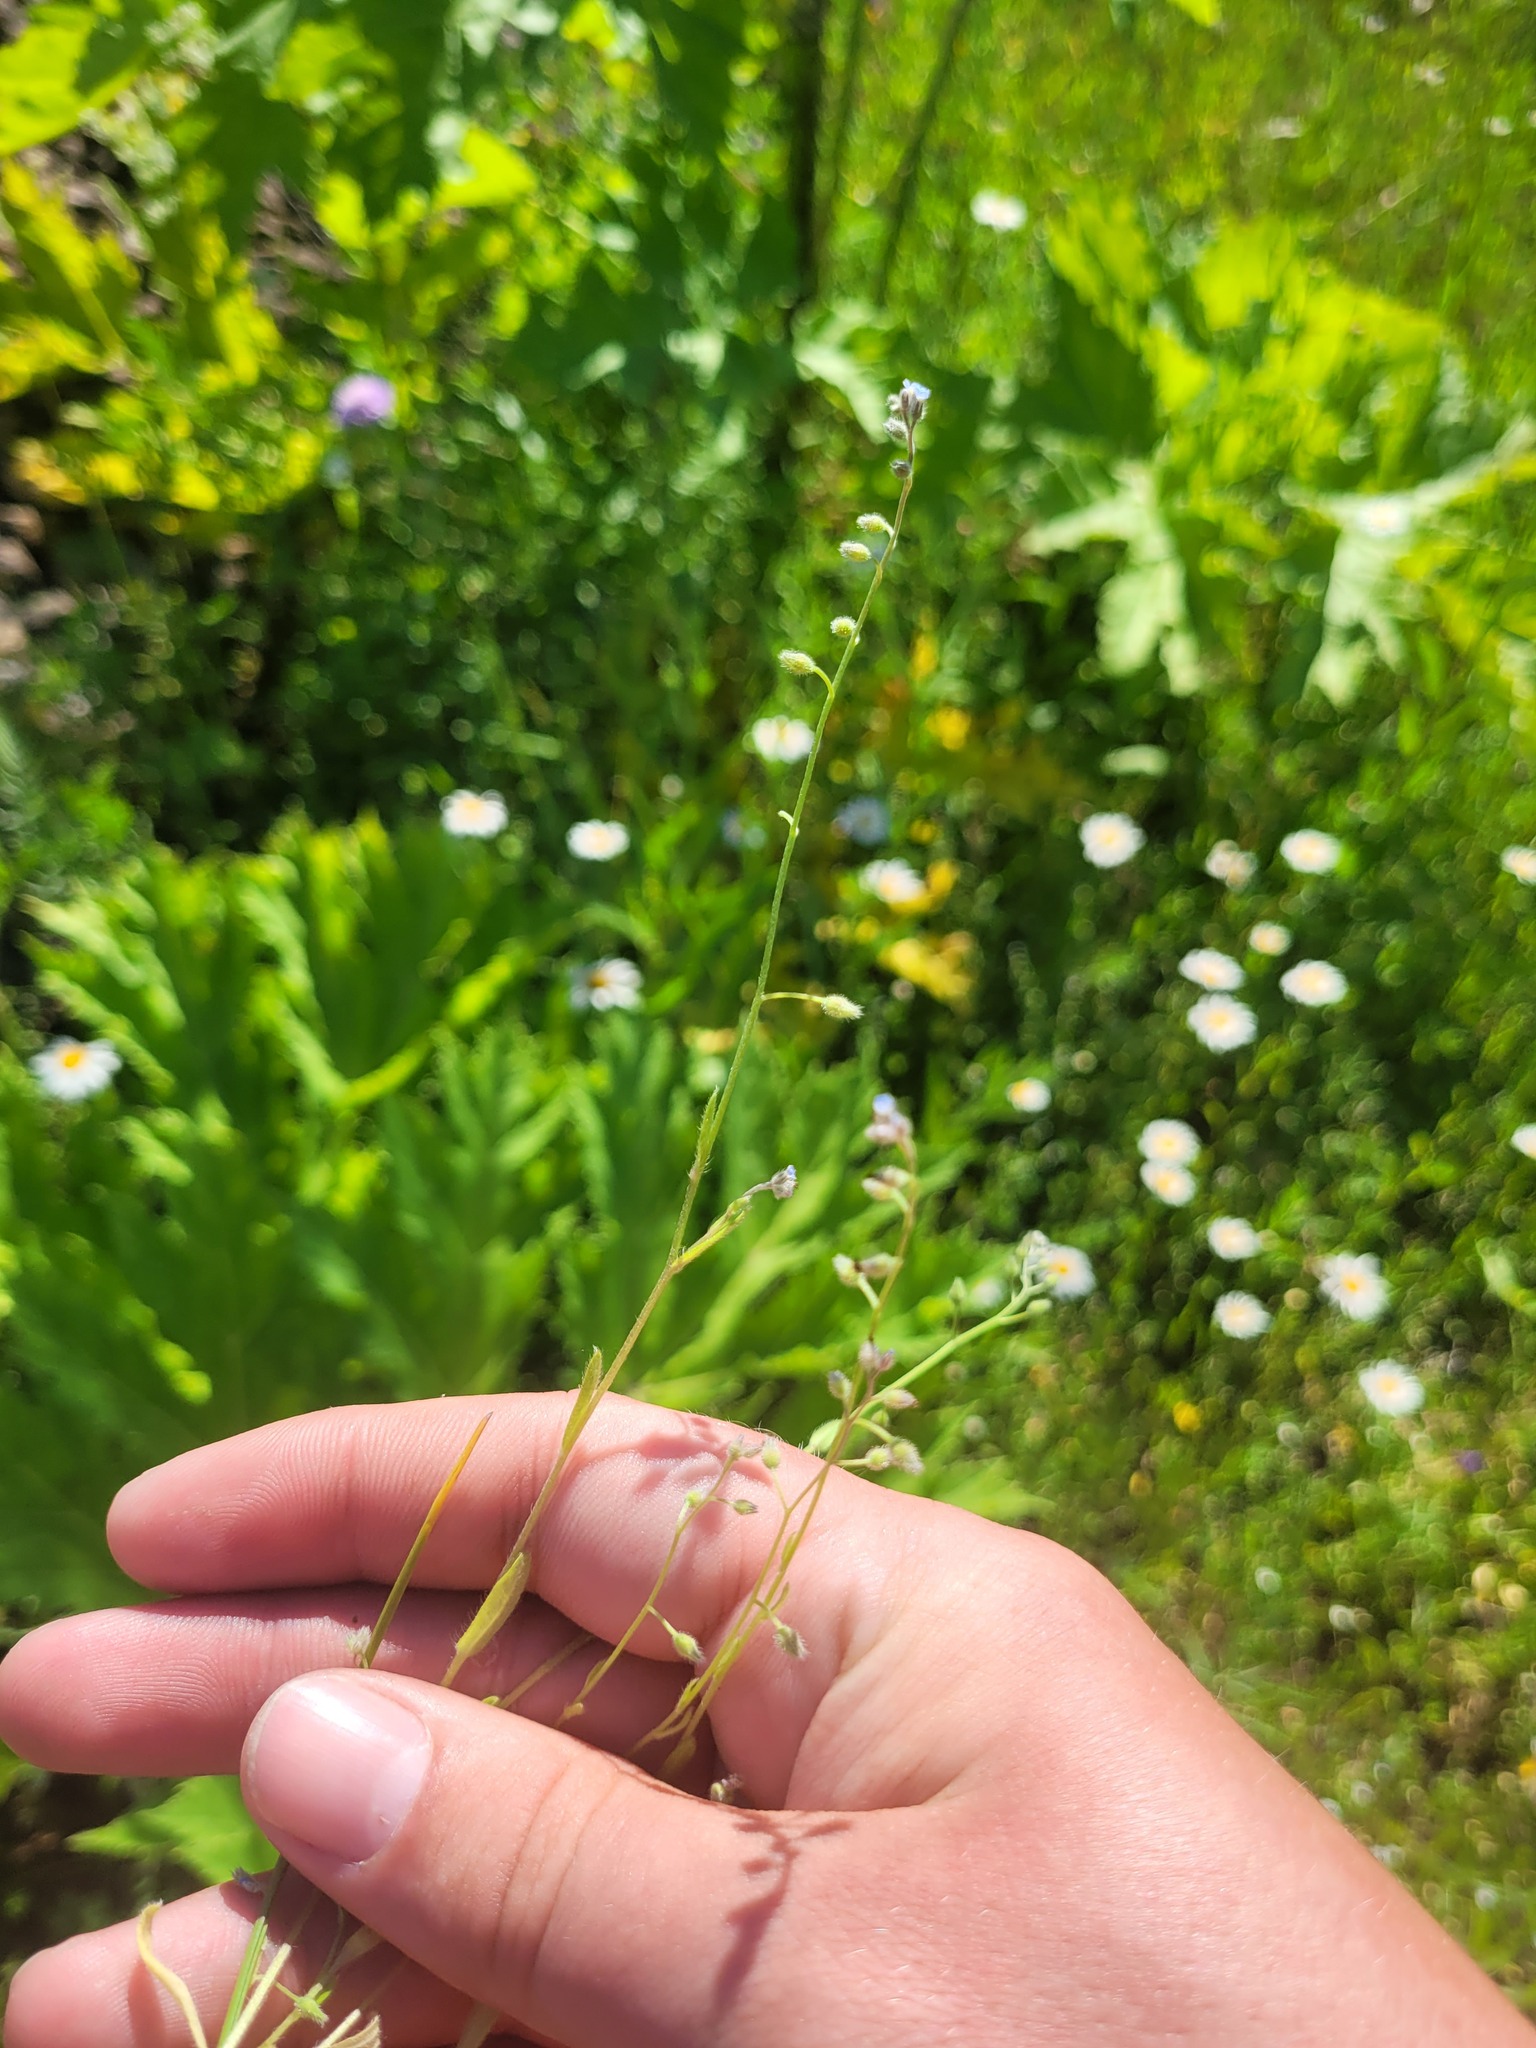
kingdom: Plantae
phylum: Tracheophyta
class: Magnoliopsida
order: Boraginales
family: Boraginaceae
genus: Myosotis
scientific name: Myosotis arvensis
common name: Field forget-me-not
